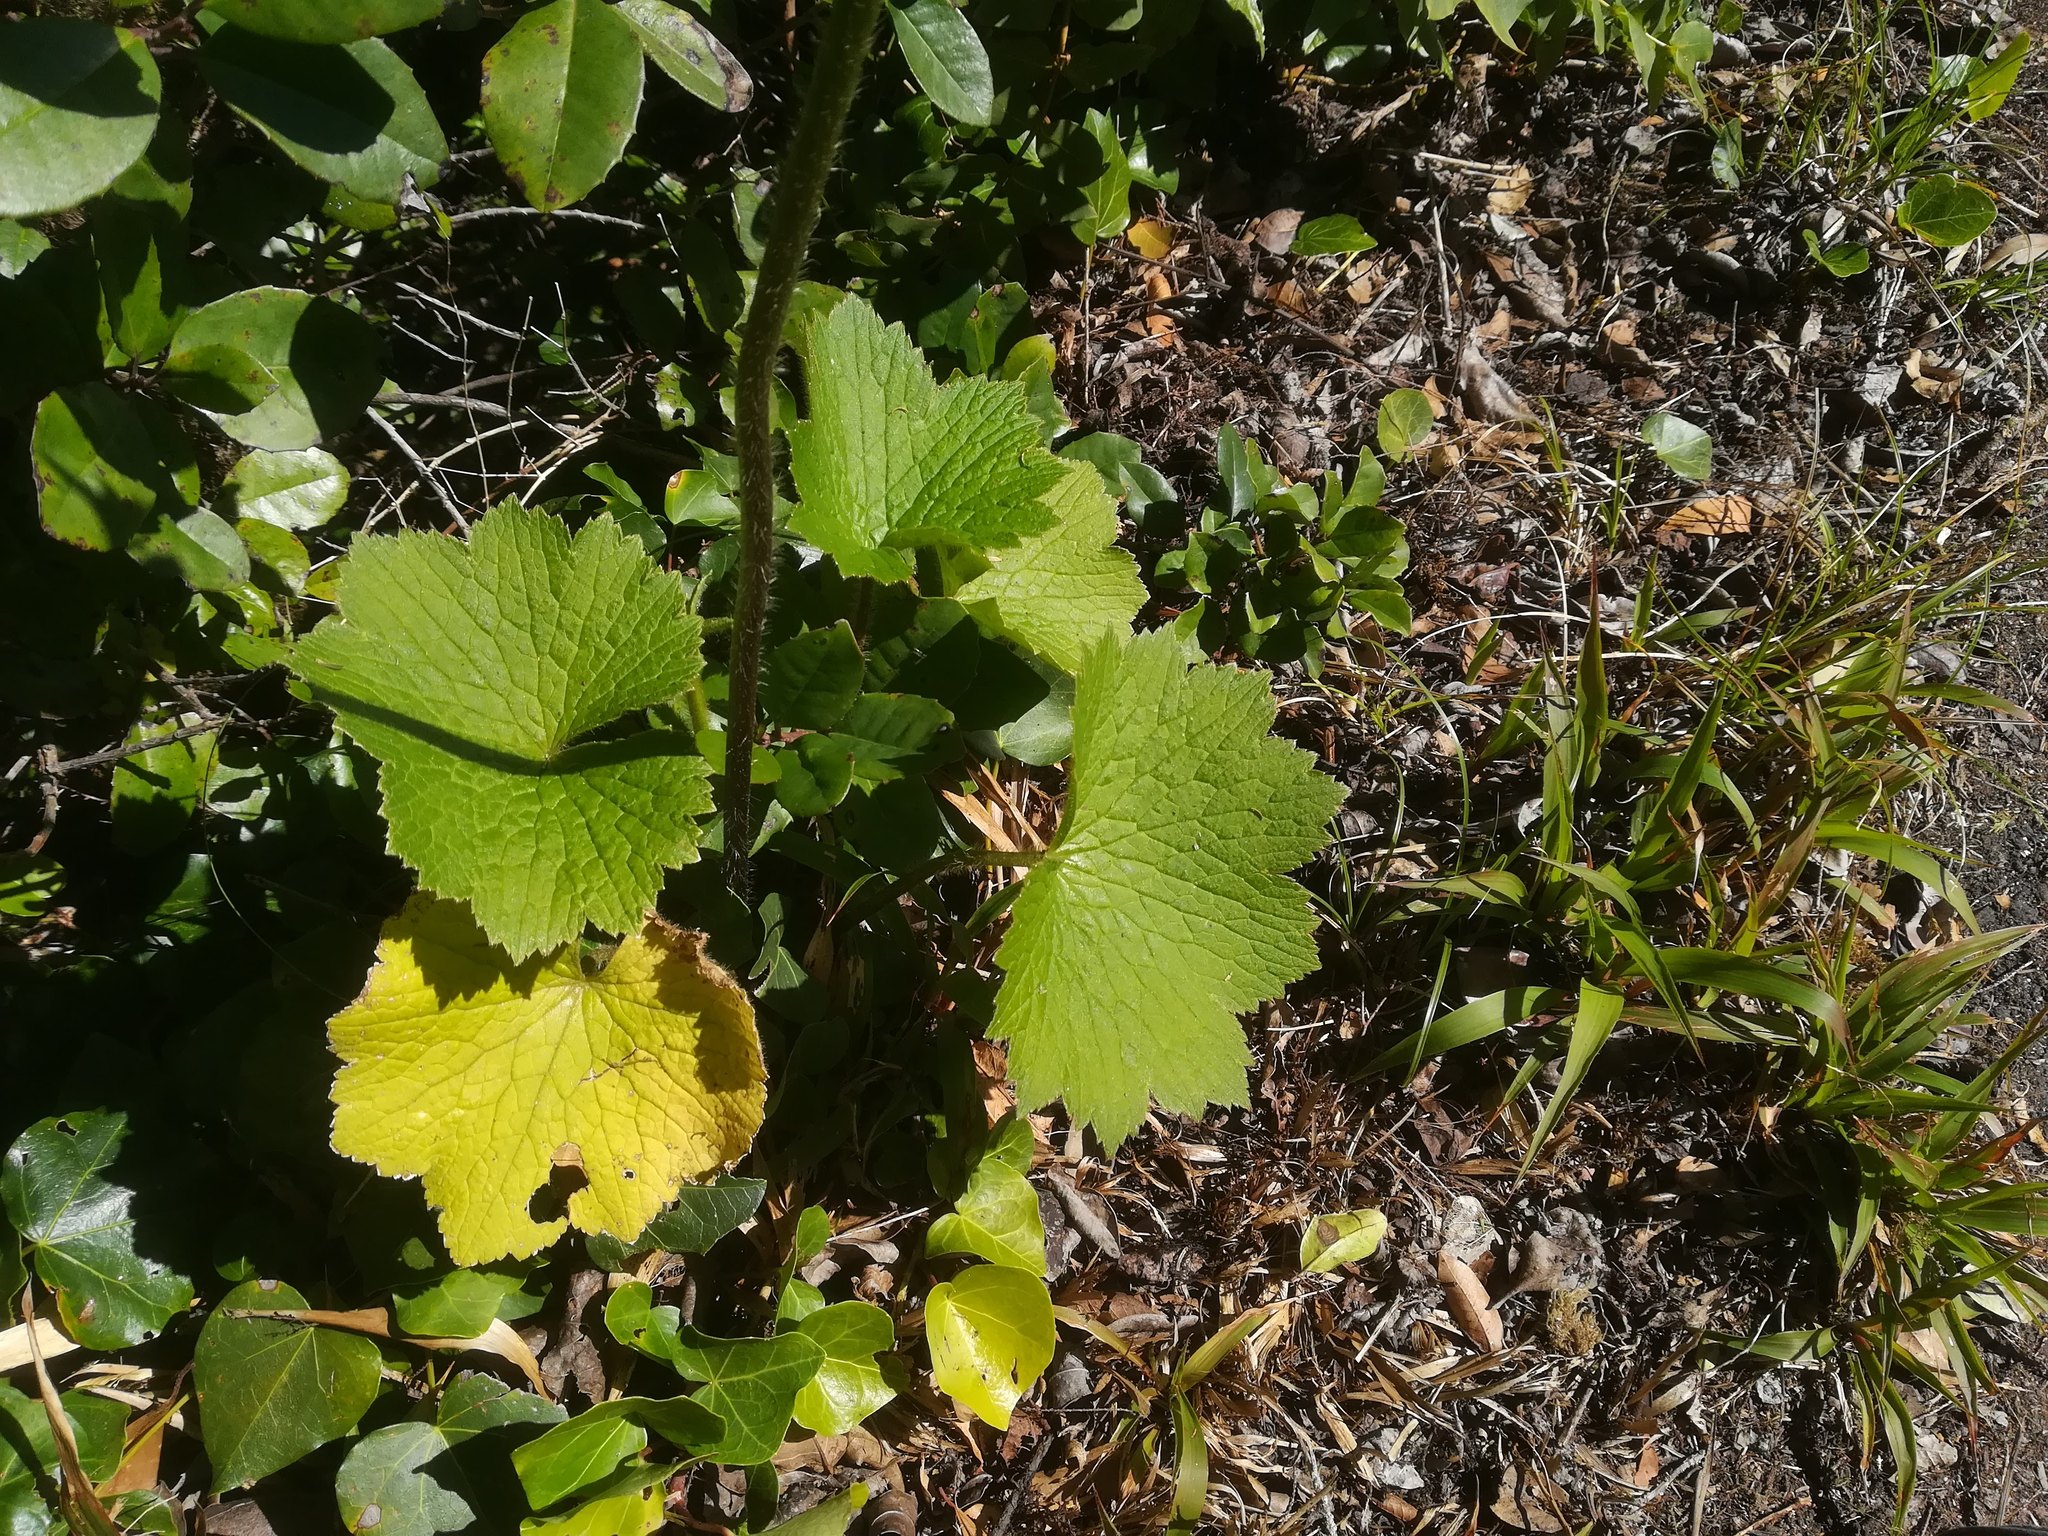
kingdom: Plantae
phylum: Tracheophyta
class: Magnoliopsida
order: Ranunculales
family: Ranunculaceae
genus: Ranunculus
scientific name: Ranunculus cortusifolius
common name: Azores buttercup
